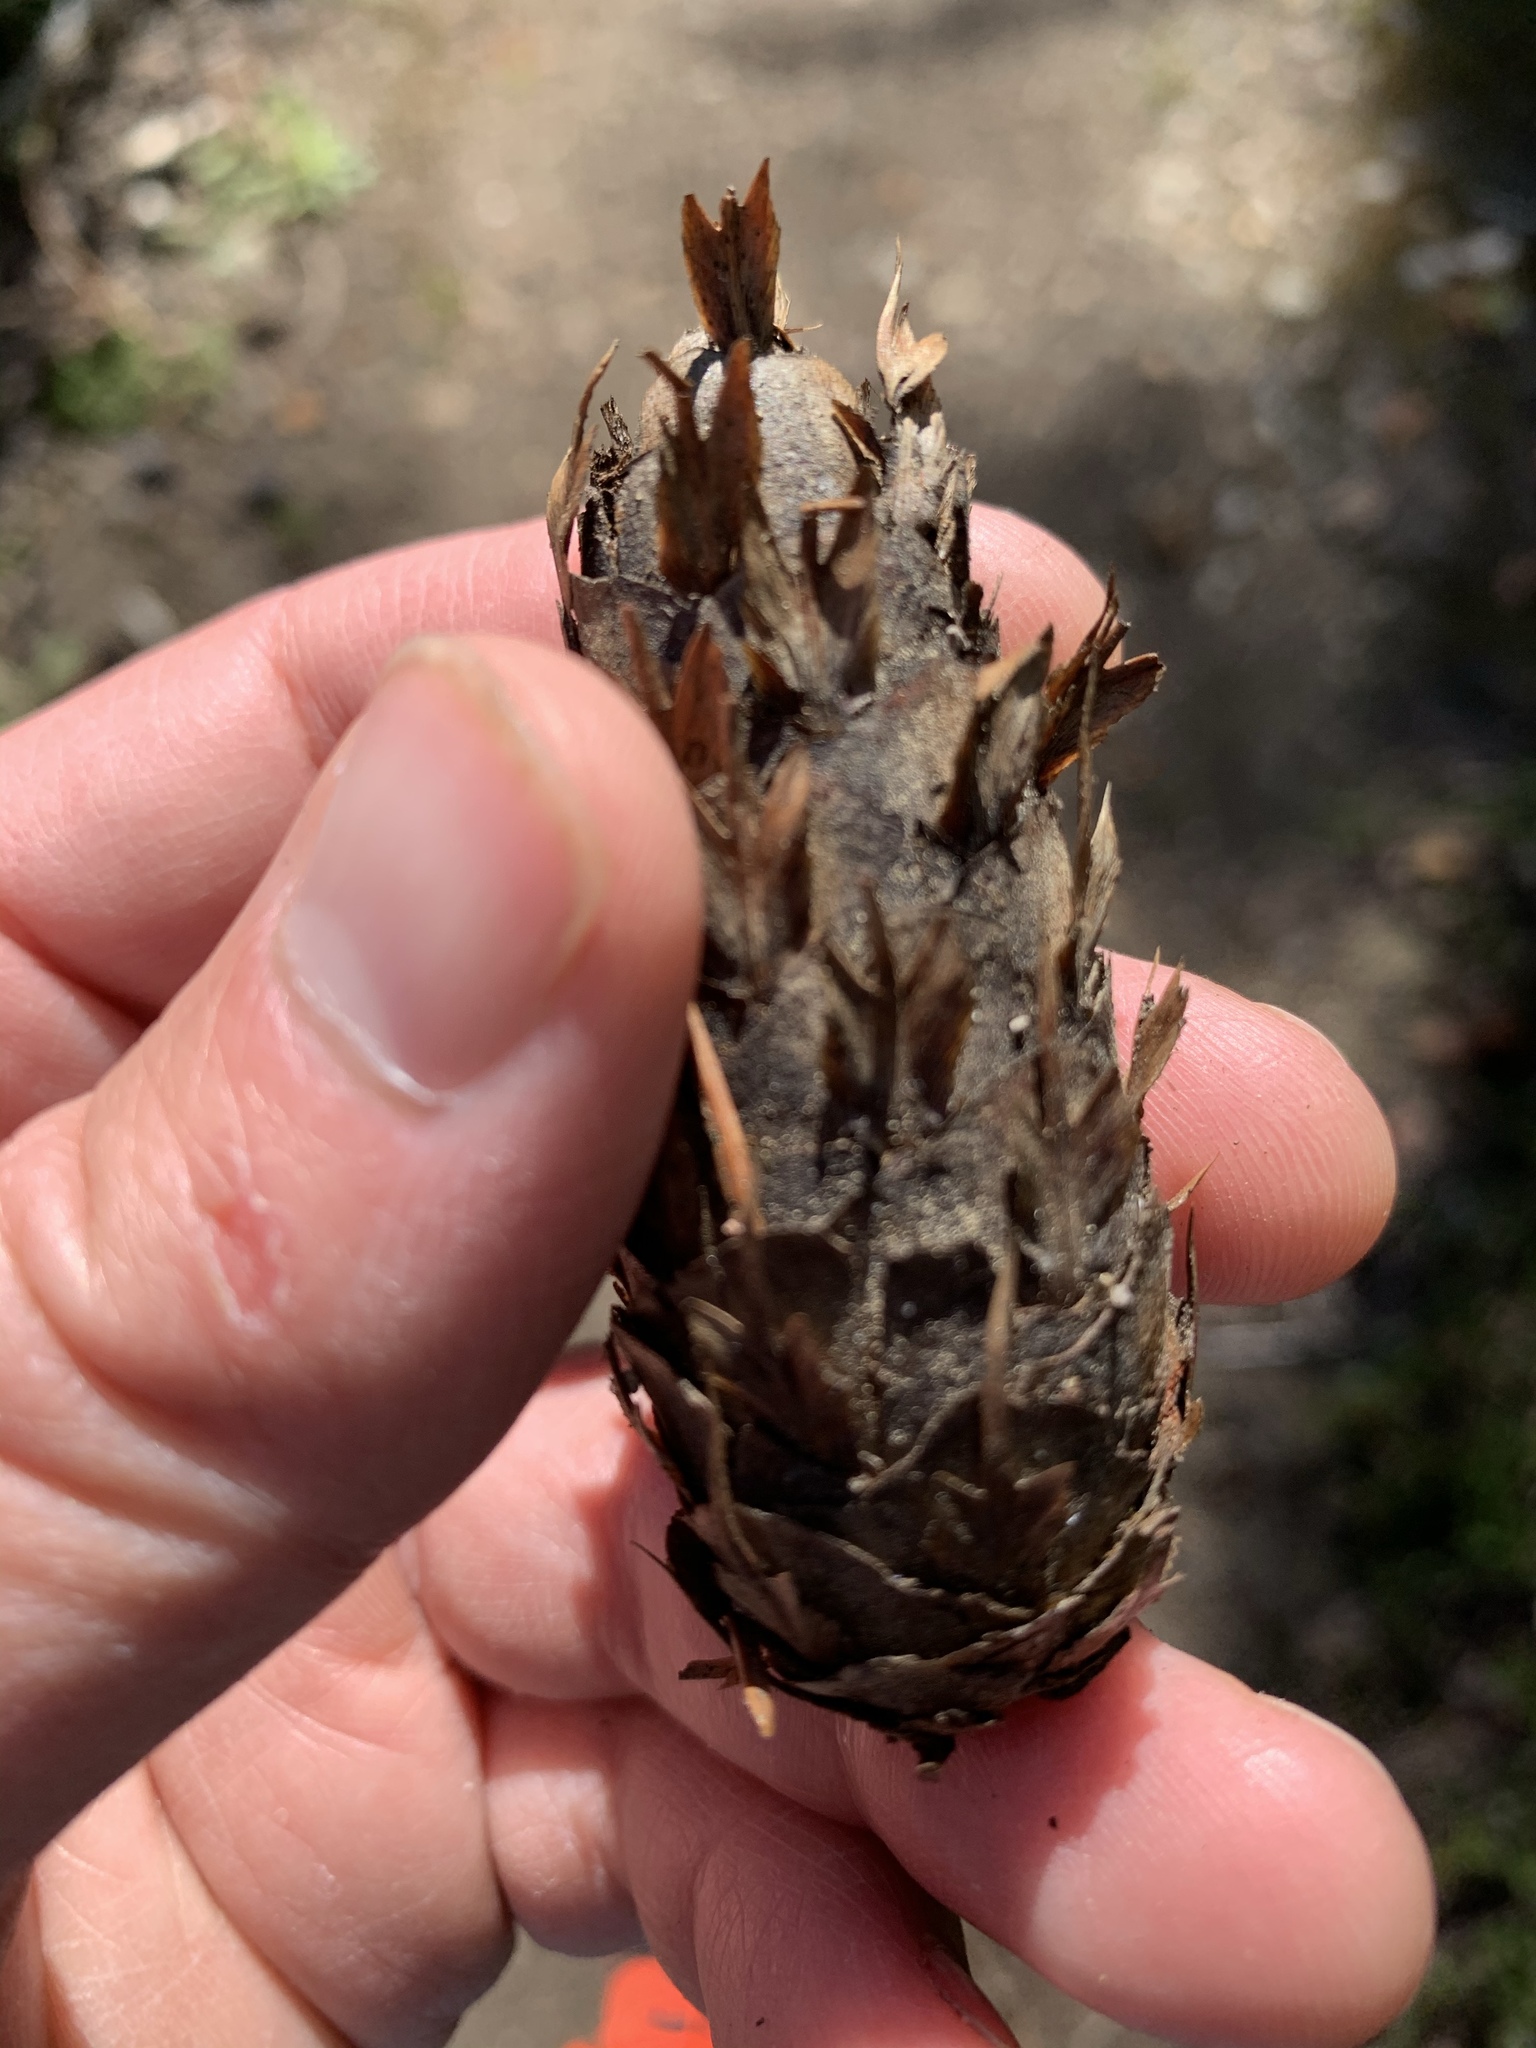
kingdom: Plantae
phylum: Tracheophyta
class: Pinopsida
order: Pinales
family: Pinaceae
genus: Pseudotsuga
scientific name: Pseudotsuga menziesii
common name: Douglas fir
